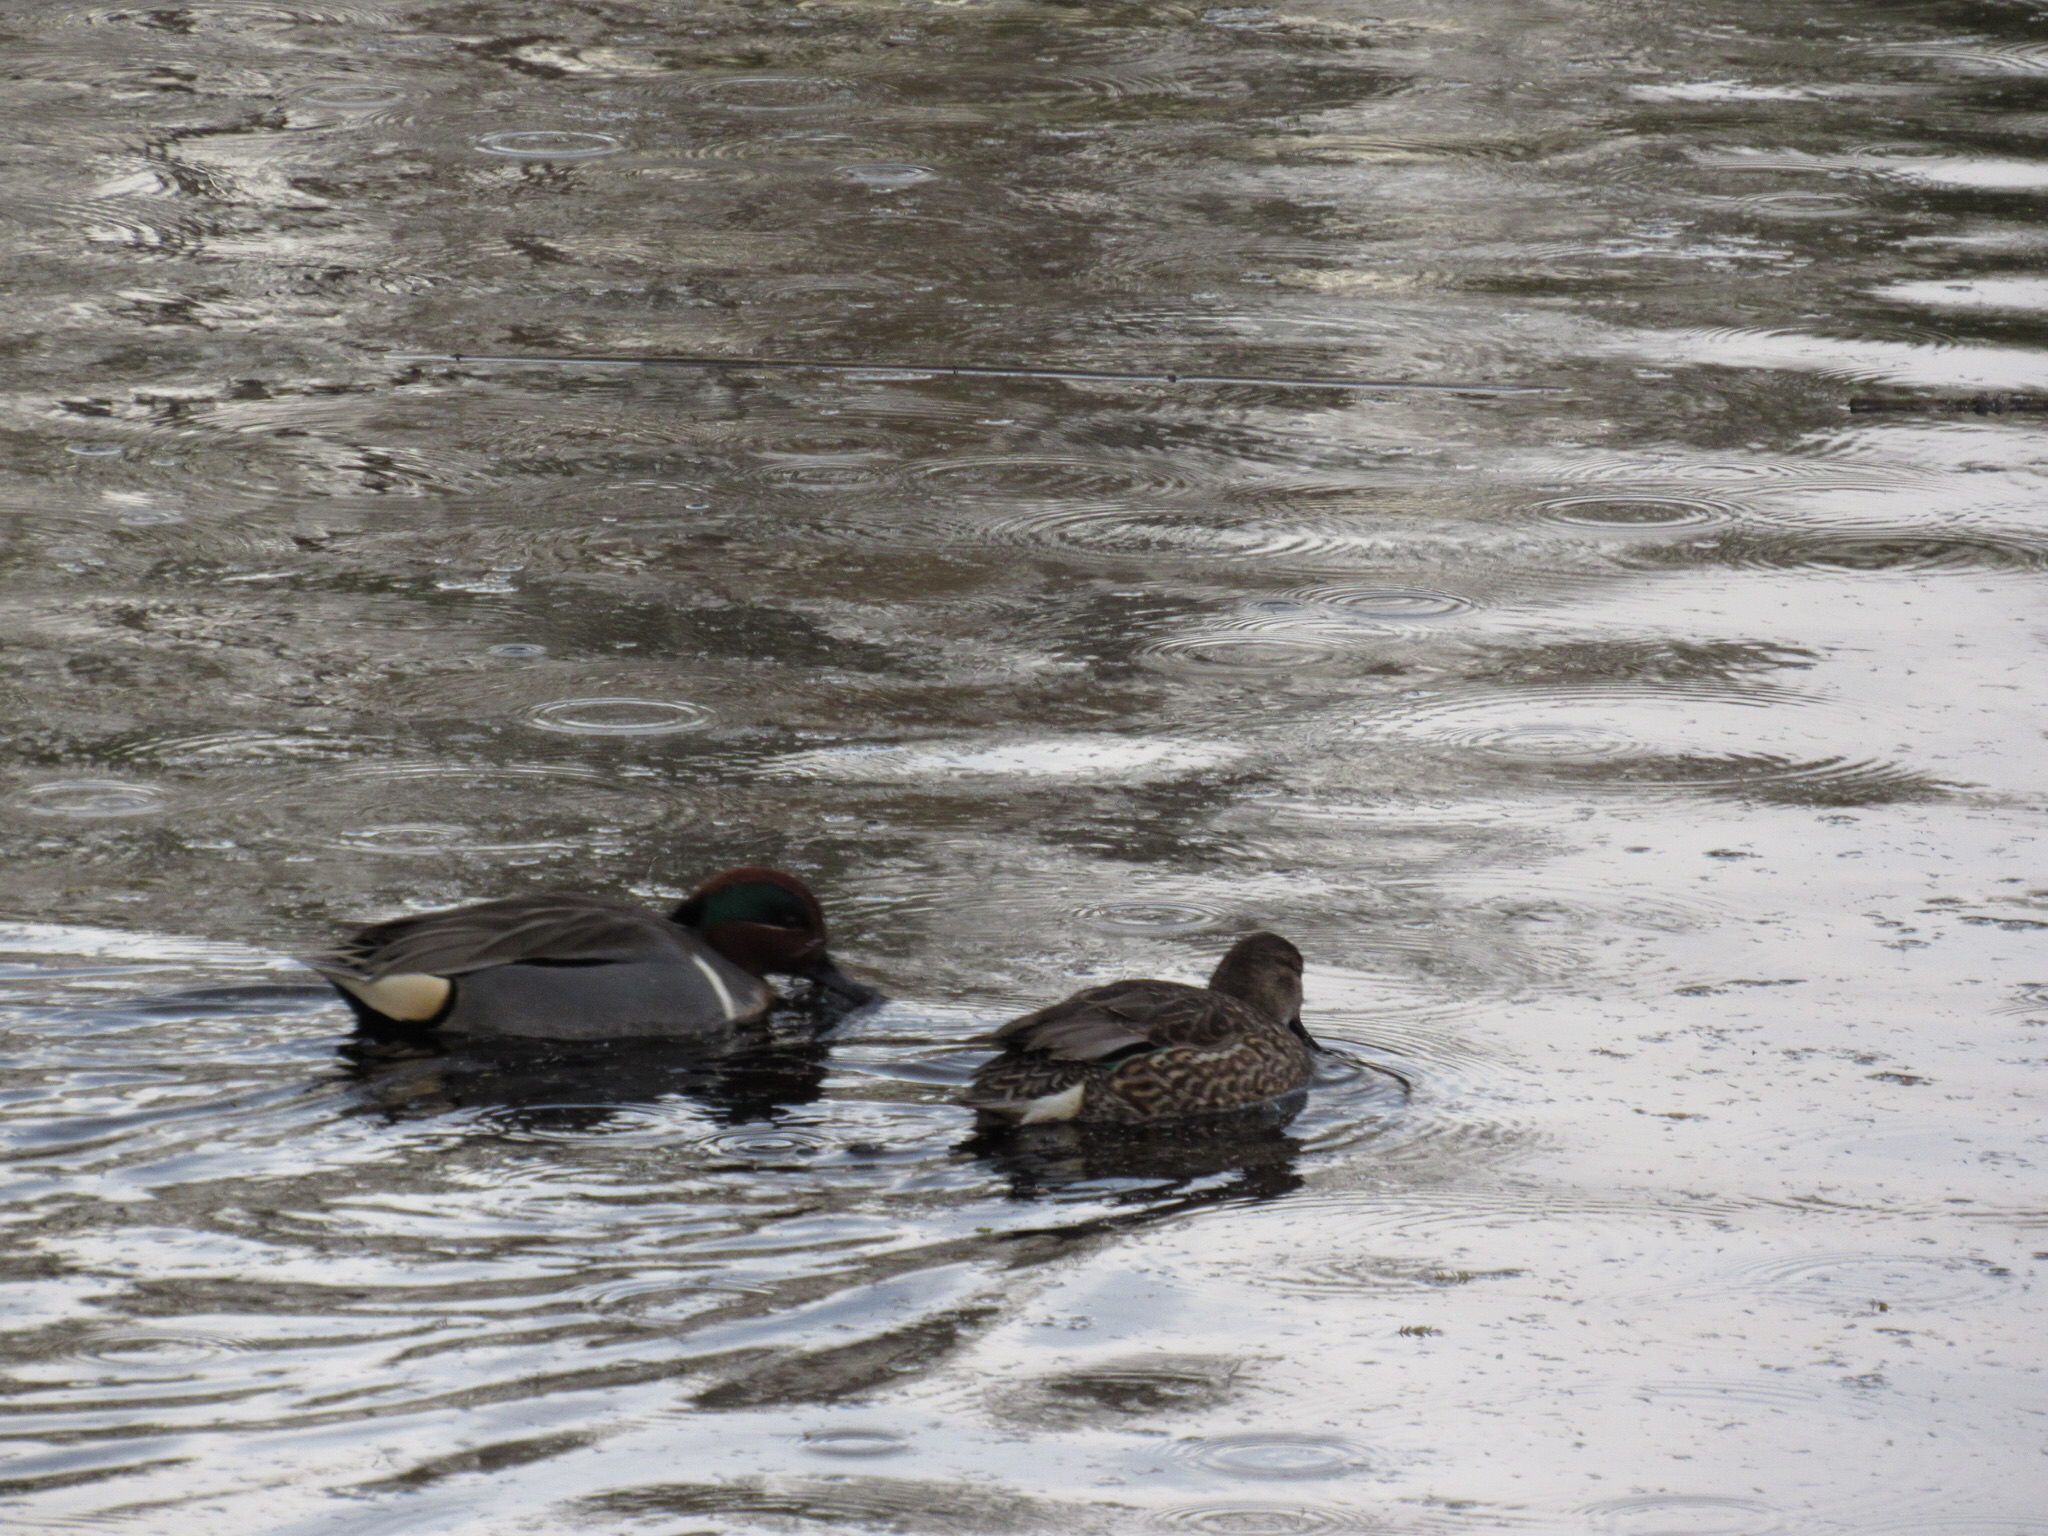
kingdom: Animalia
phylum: Chordata
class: Aves
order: Anseriformes
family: Anatidae
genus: Anas
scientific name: Anas crecca
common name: Eurasian teal
